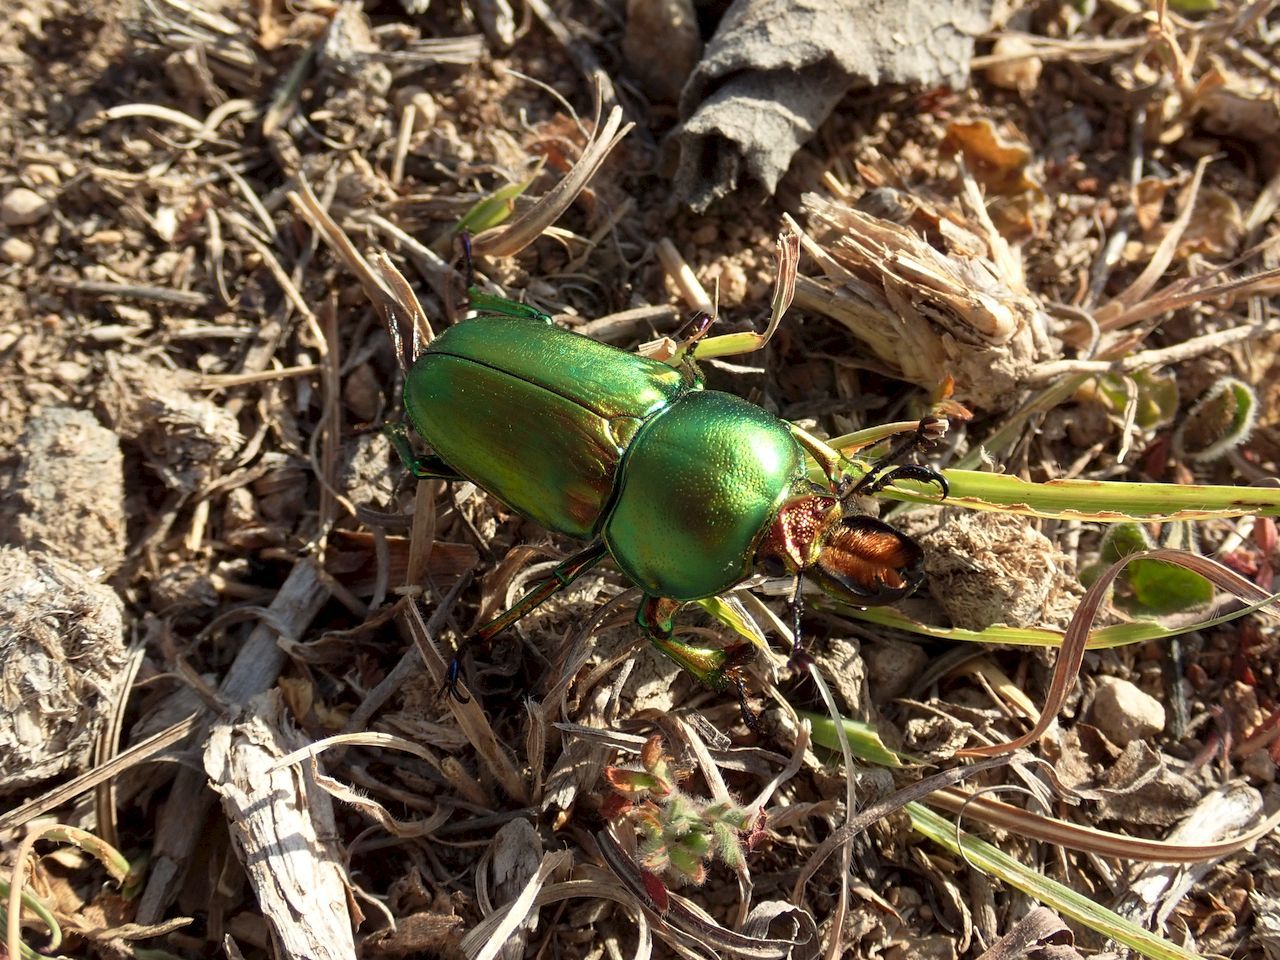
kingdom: Animalia
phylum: Arthropoda
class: Insecta
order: Coleoptera
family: Lucanidae
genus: Lamprima
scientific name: Lamprima aurata
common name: Golden stag beetle
